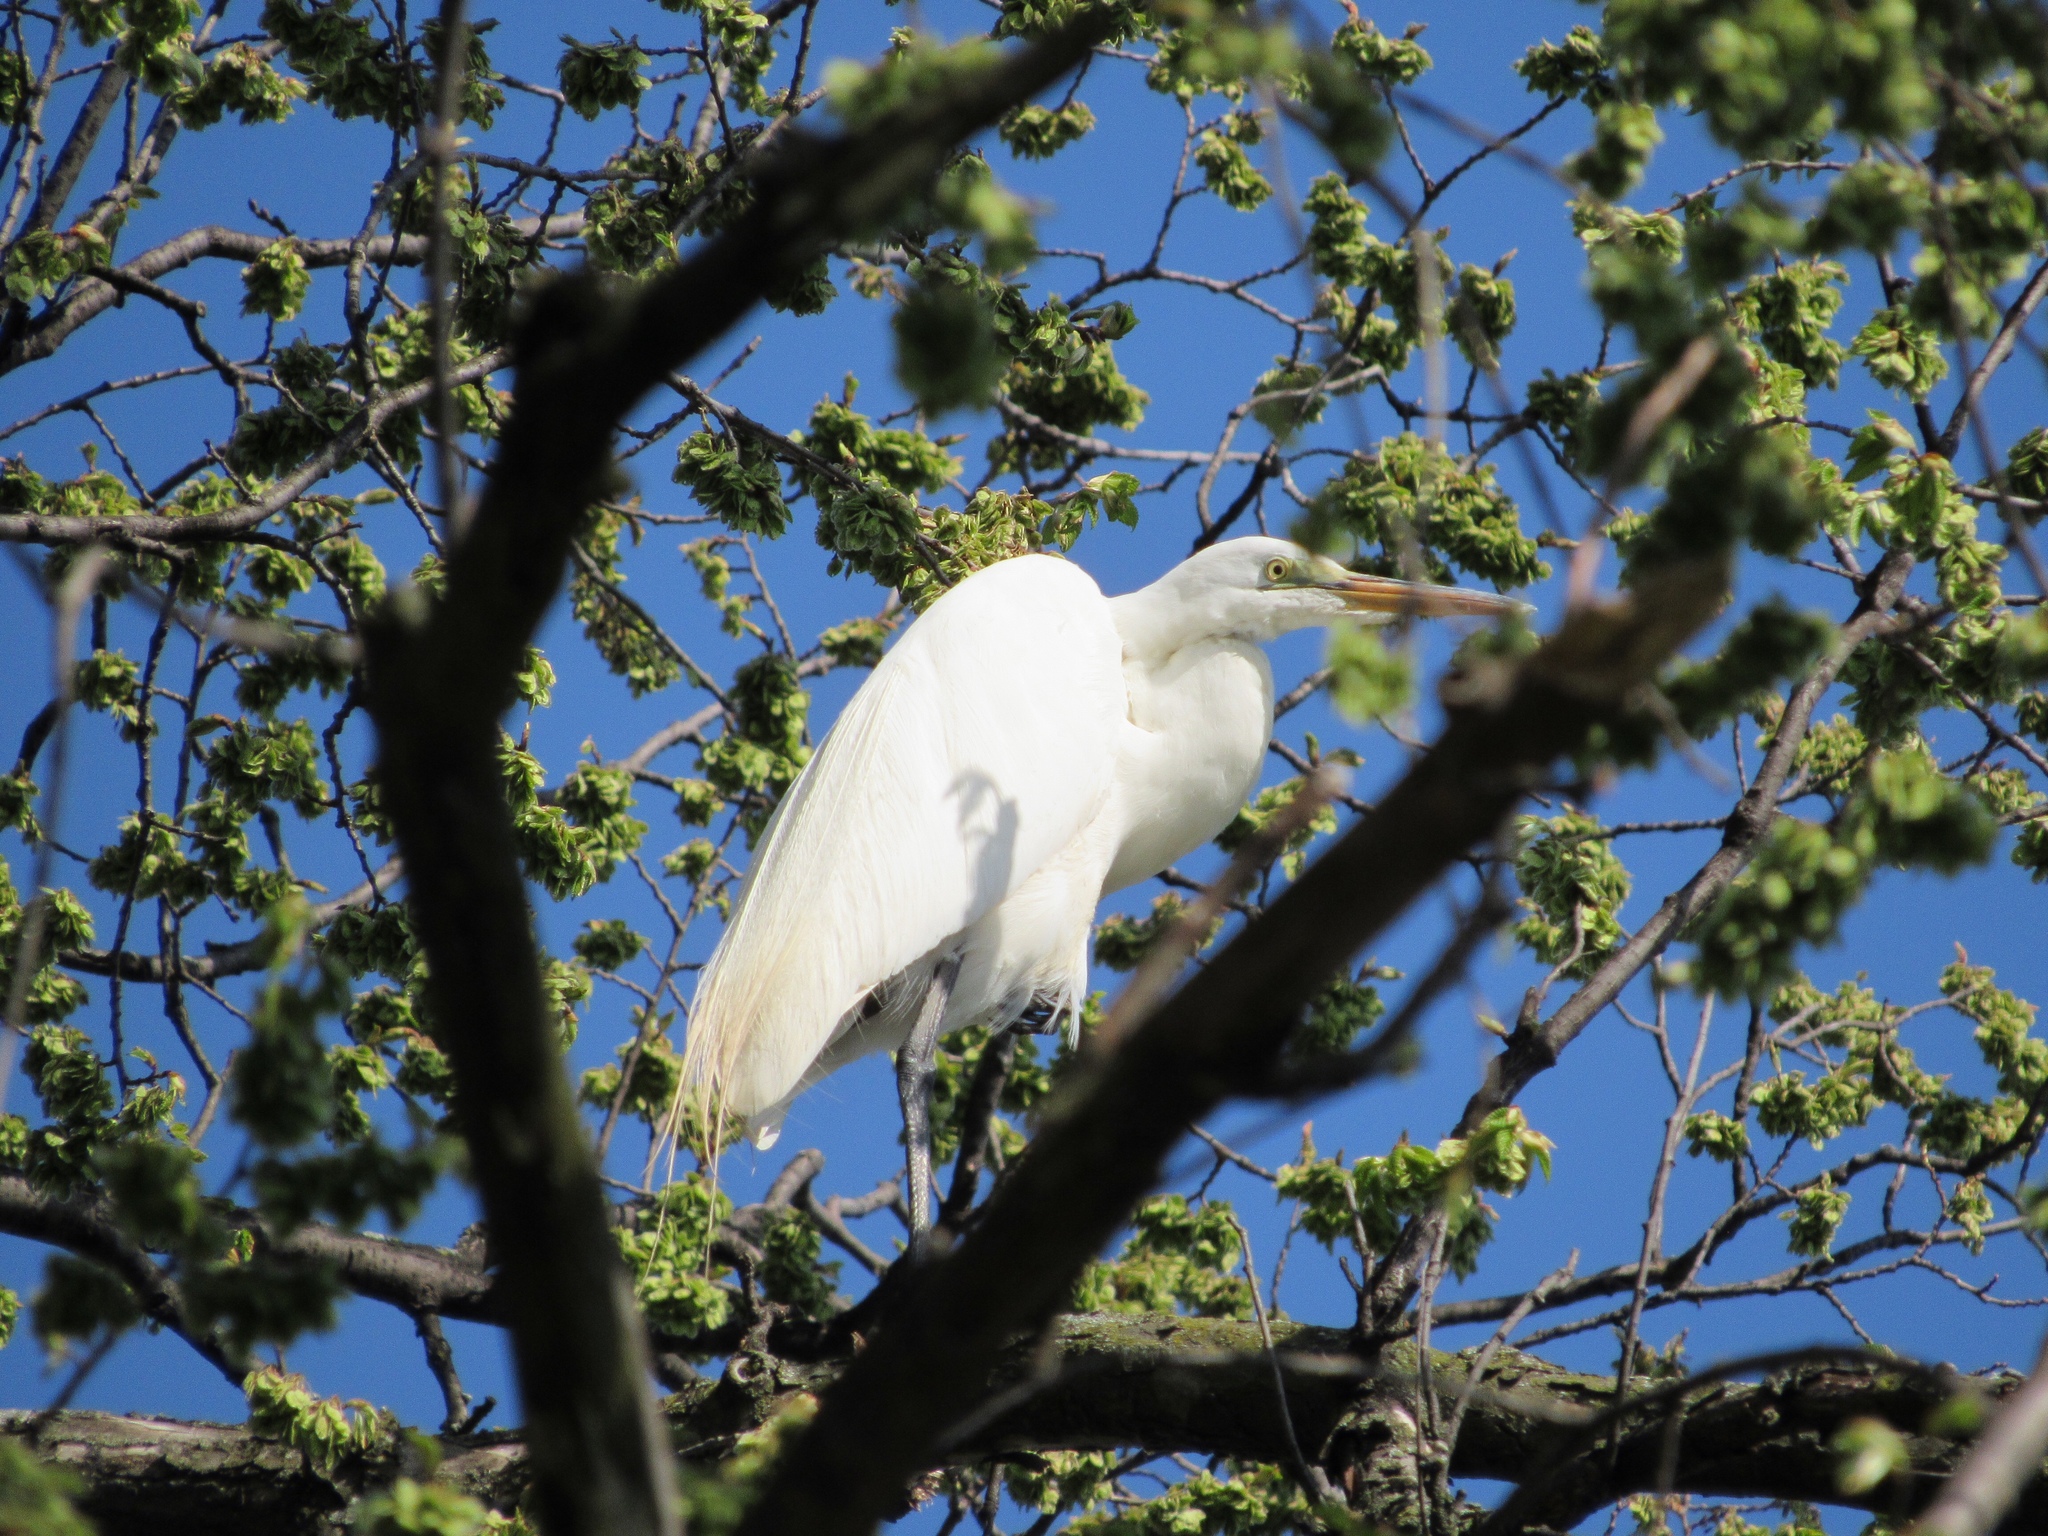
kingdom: Animalia
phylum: Chordata
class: Aves
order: Pelecaniformes
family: Ardeidae
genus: Ardea
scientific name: Ardea alba
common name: Great egret
